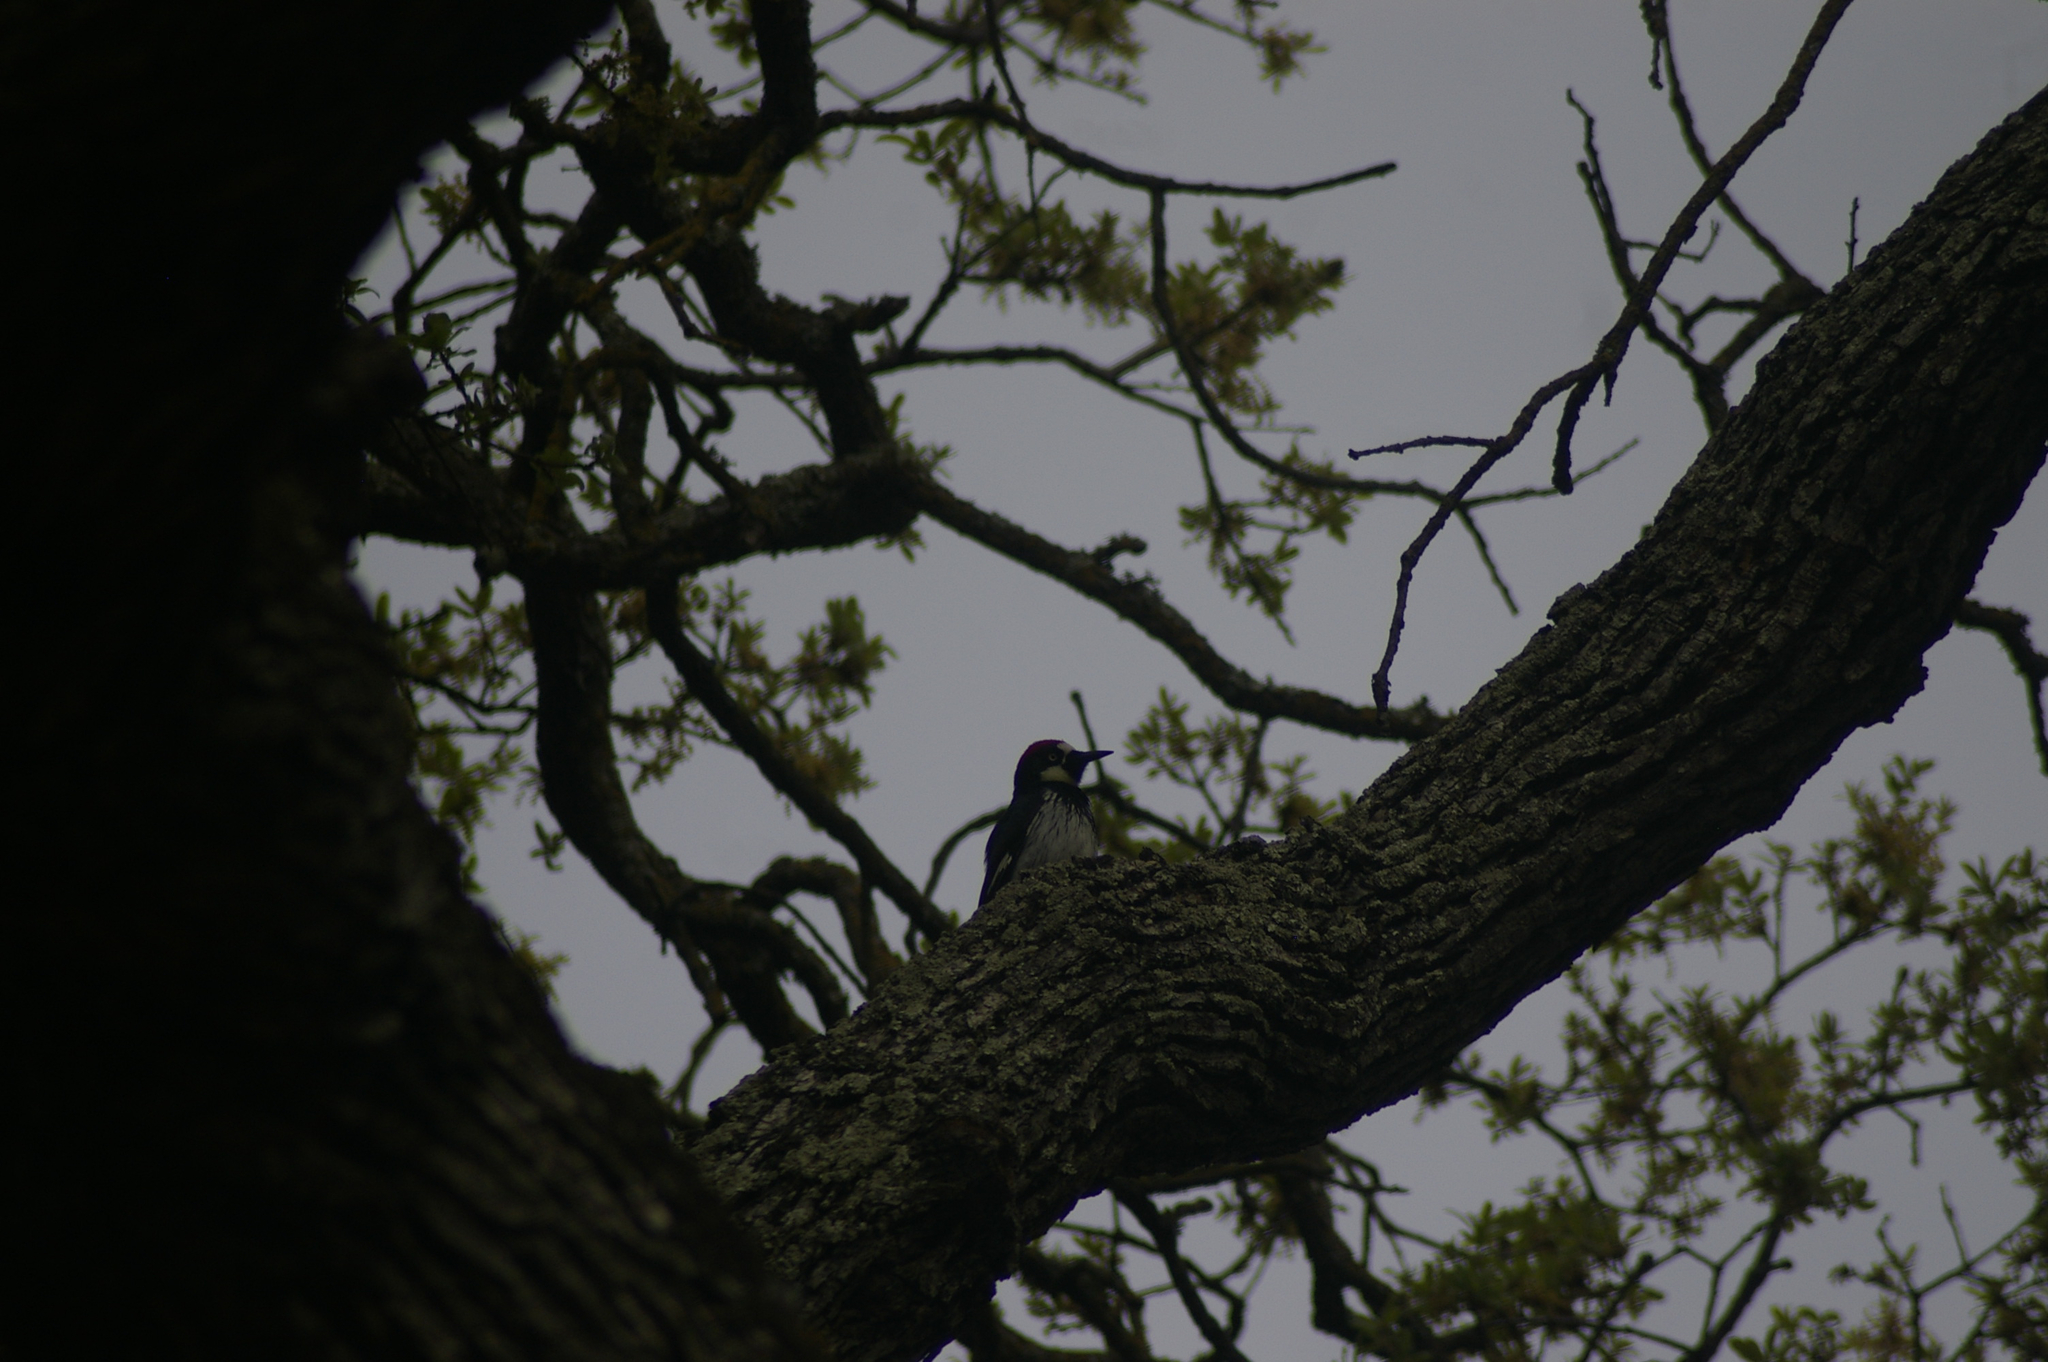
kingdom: Animalia
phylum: Chordata
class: Aves
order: Piciformes
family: Picidae
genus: Melanerpes
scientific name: Melanerpes formicivorus
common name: Acorn woodpecker
